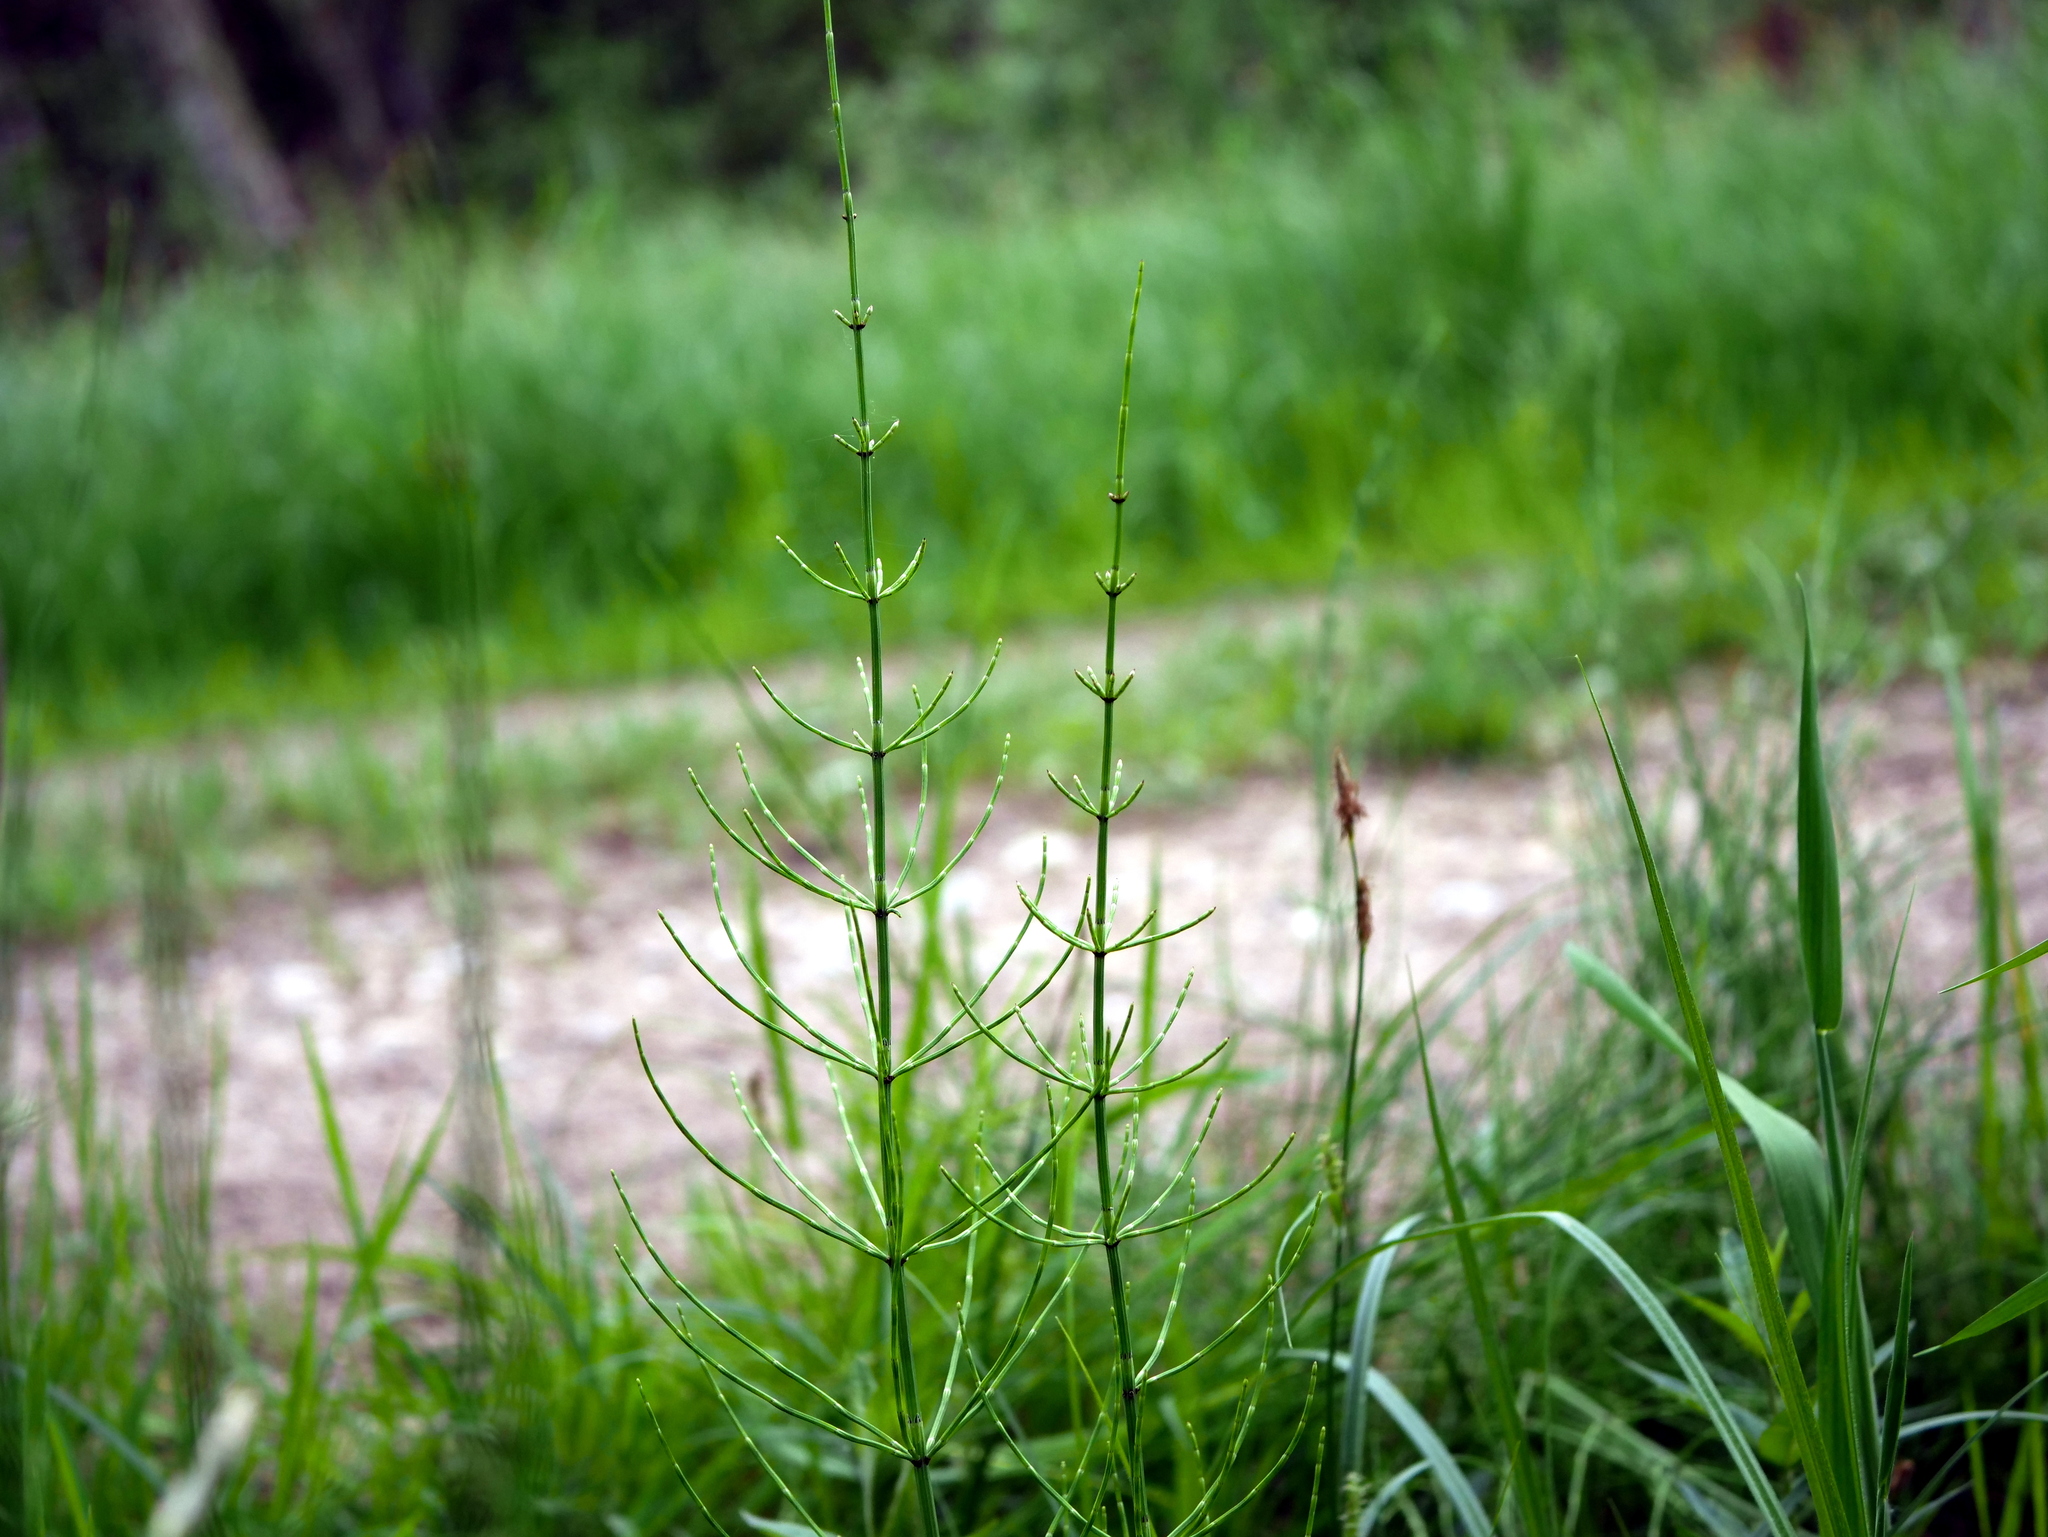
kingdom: Plantae
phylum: Tracheophyta
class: Polypodiopsida
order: Equisetales
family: Equisetaceae
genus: Equisetum
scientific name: Equisetum palustre
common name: Marsh horsetail
